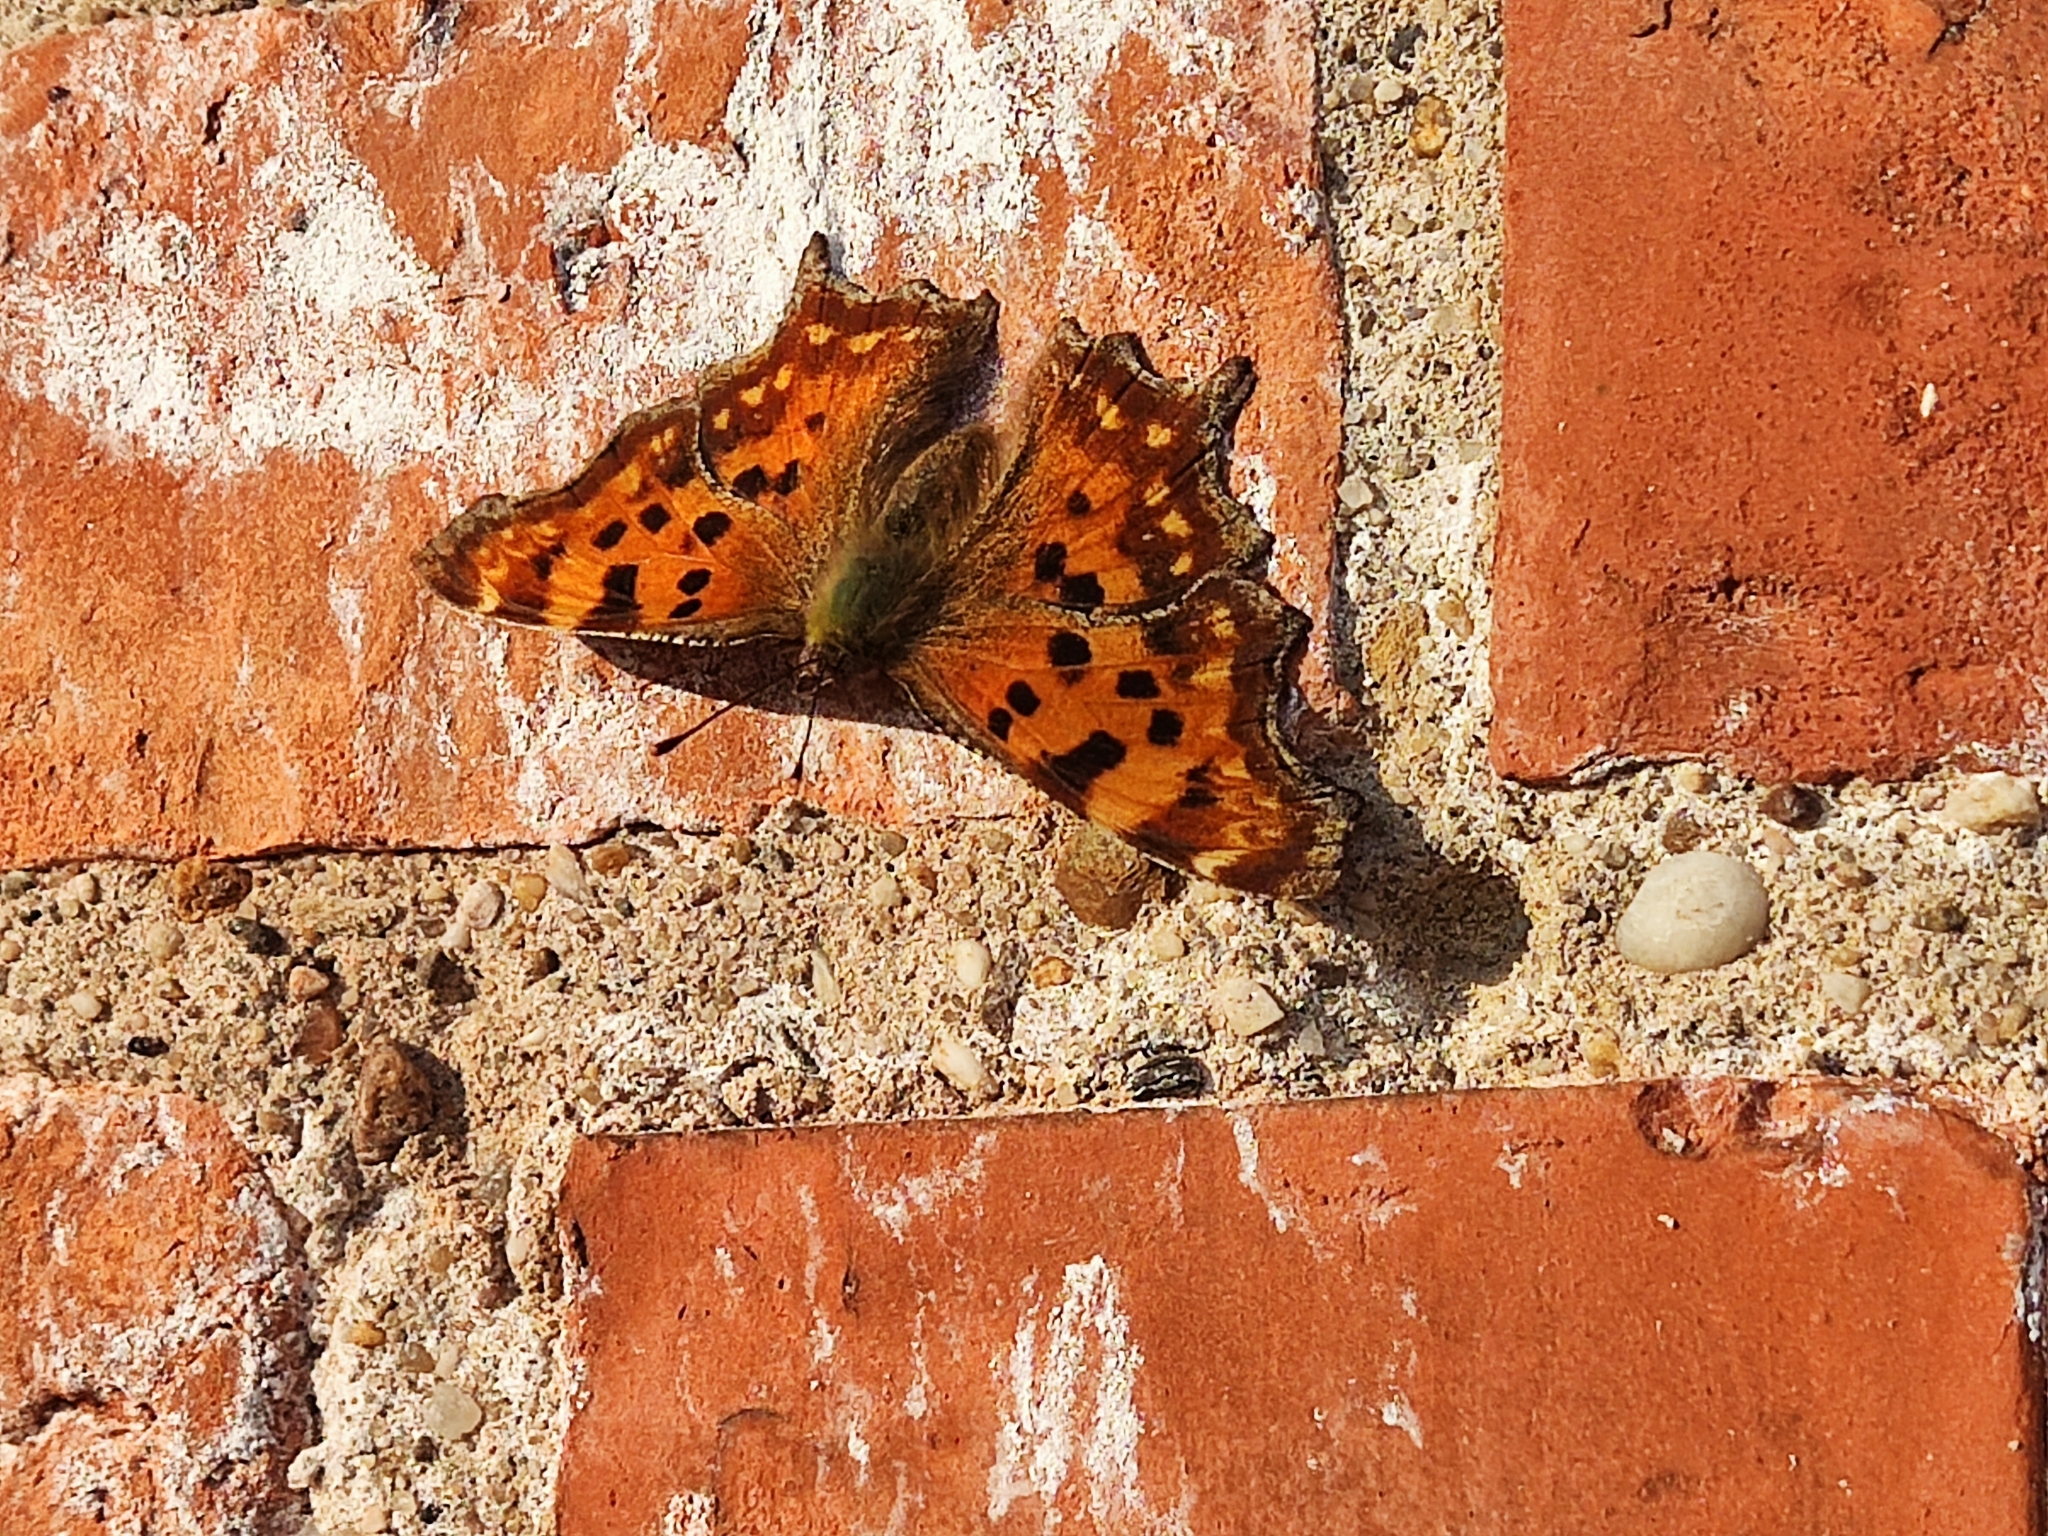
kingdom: Animalia
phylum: Arthropoda
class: Insecta
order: Lepidoptera
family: Nymphalidae
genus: Polygonia
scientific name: Polygonia c-album
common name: Comma
